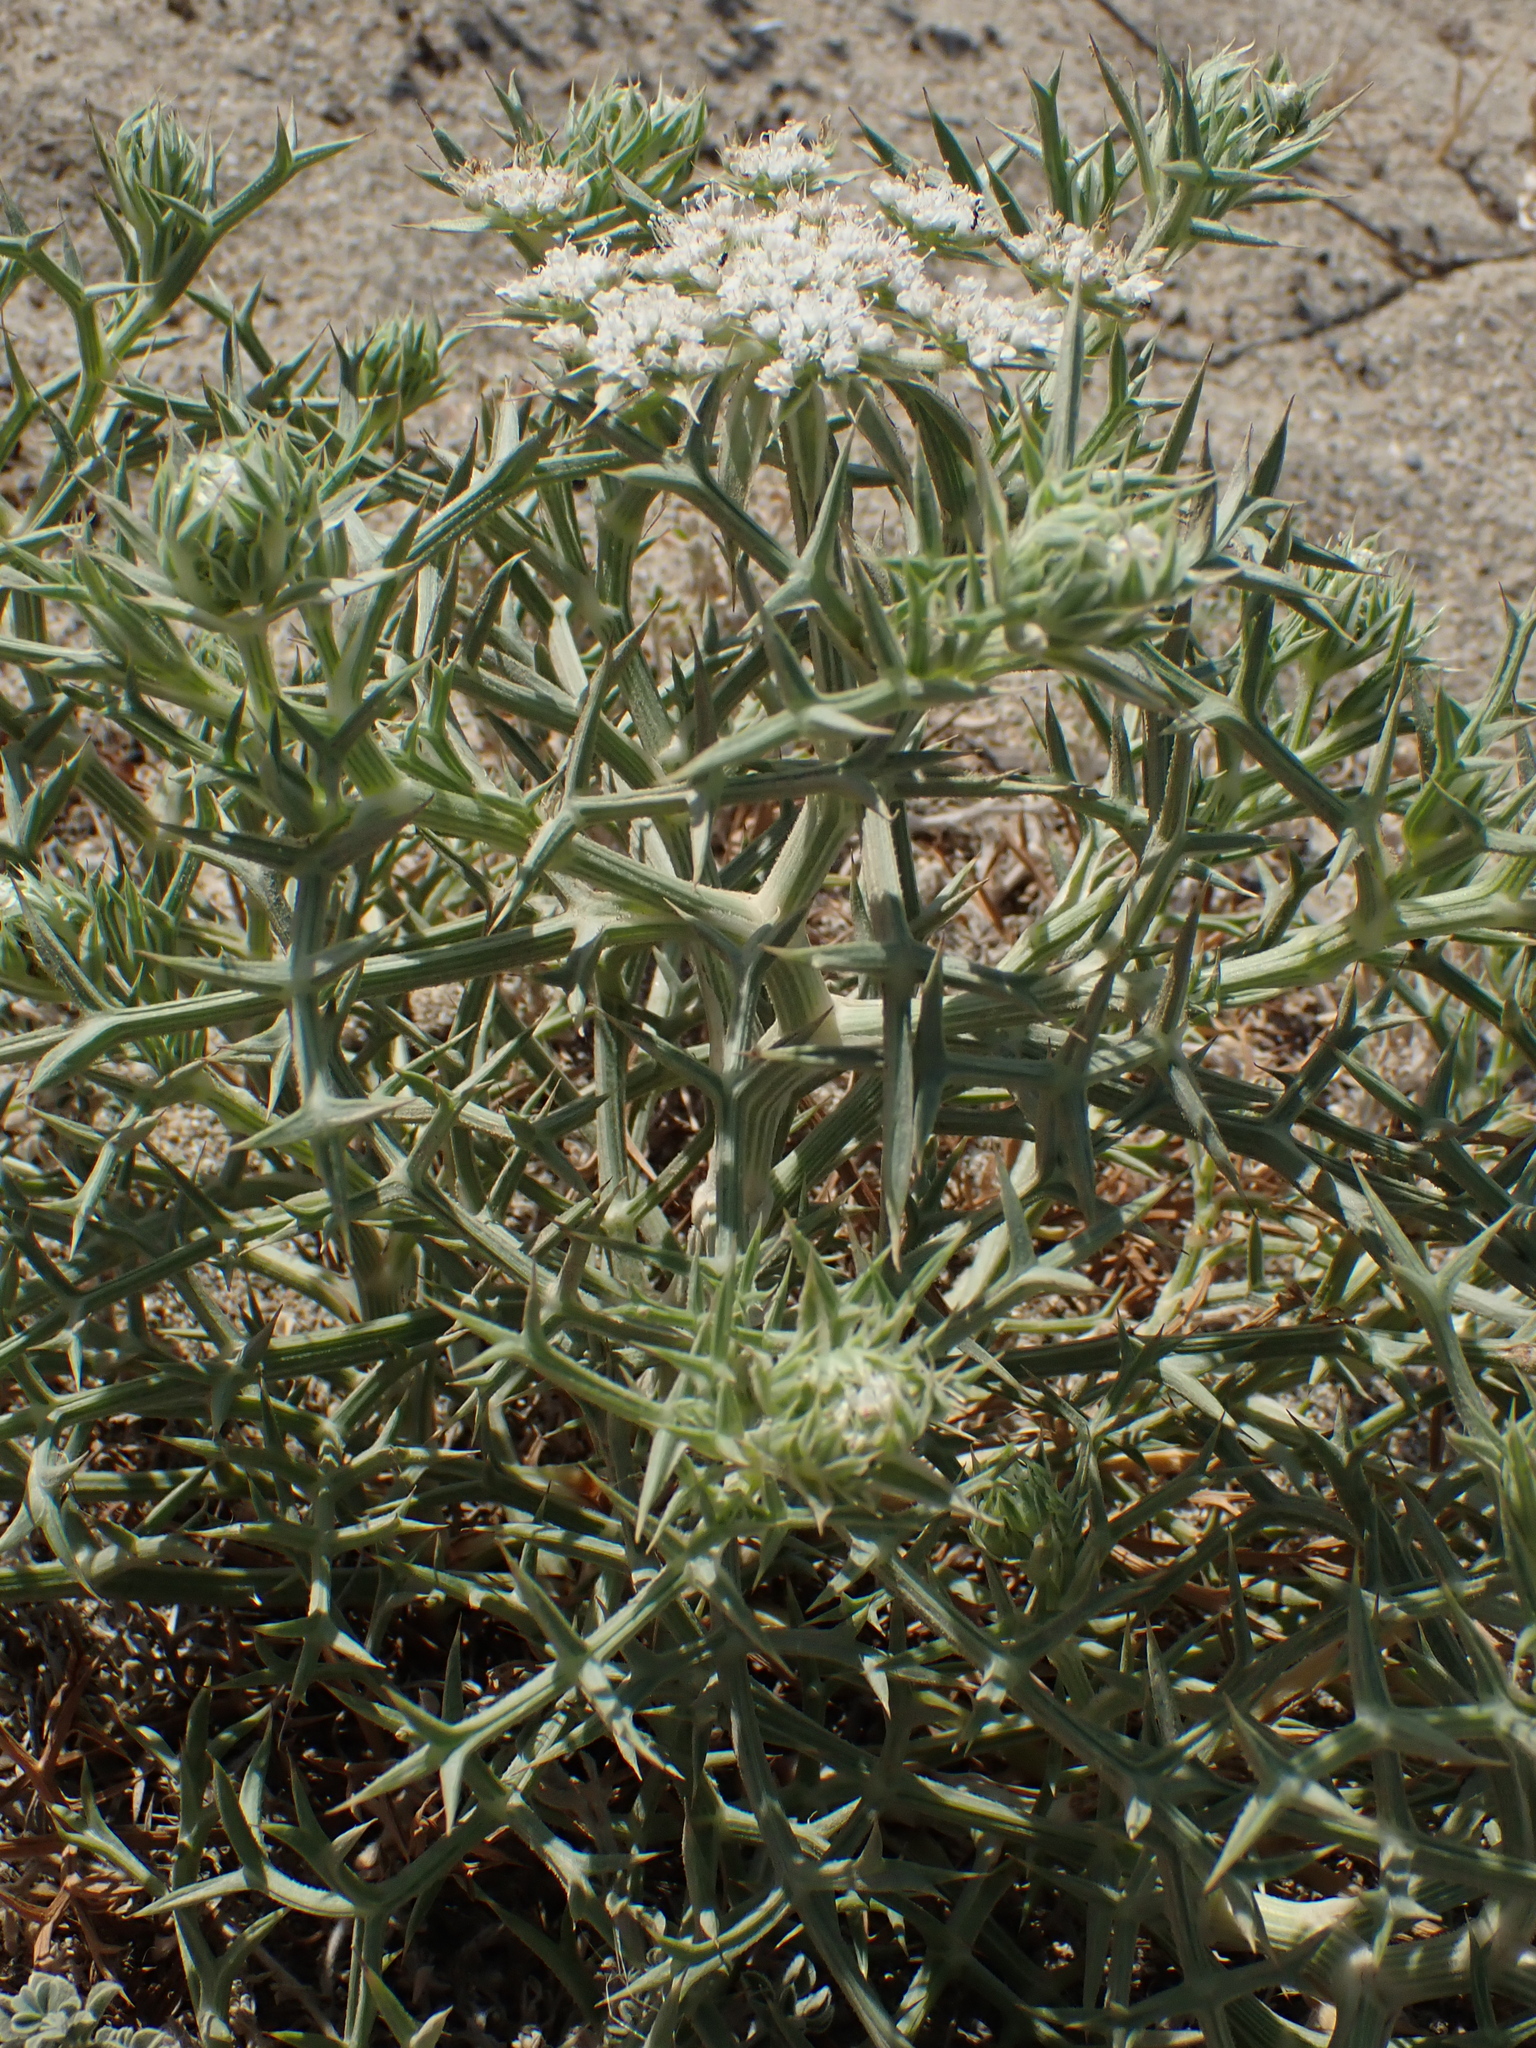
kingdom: Plantae
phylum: Tracheophyta
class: Magnoliopsida
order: Apiales
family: Apiaceae
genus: Echinophora
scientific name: Echinophora spinosa
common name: Prickly samphire
